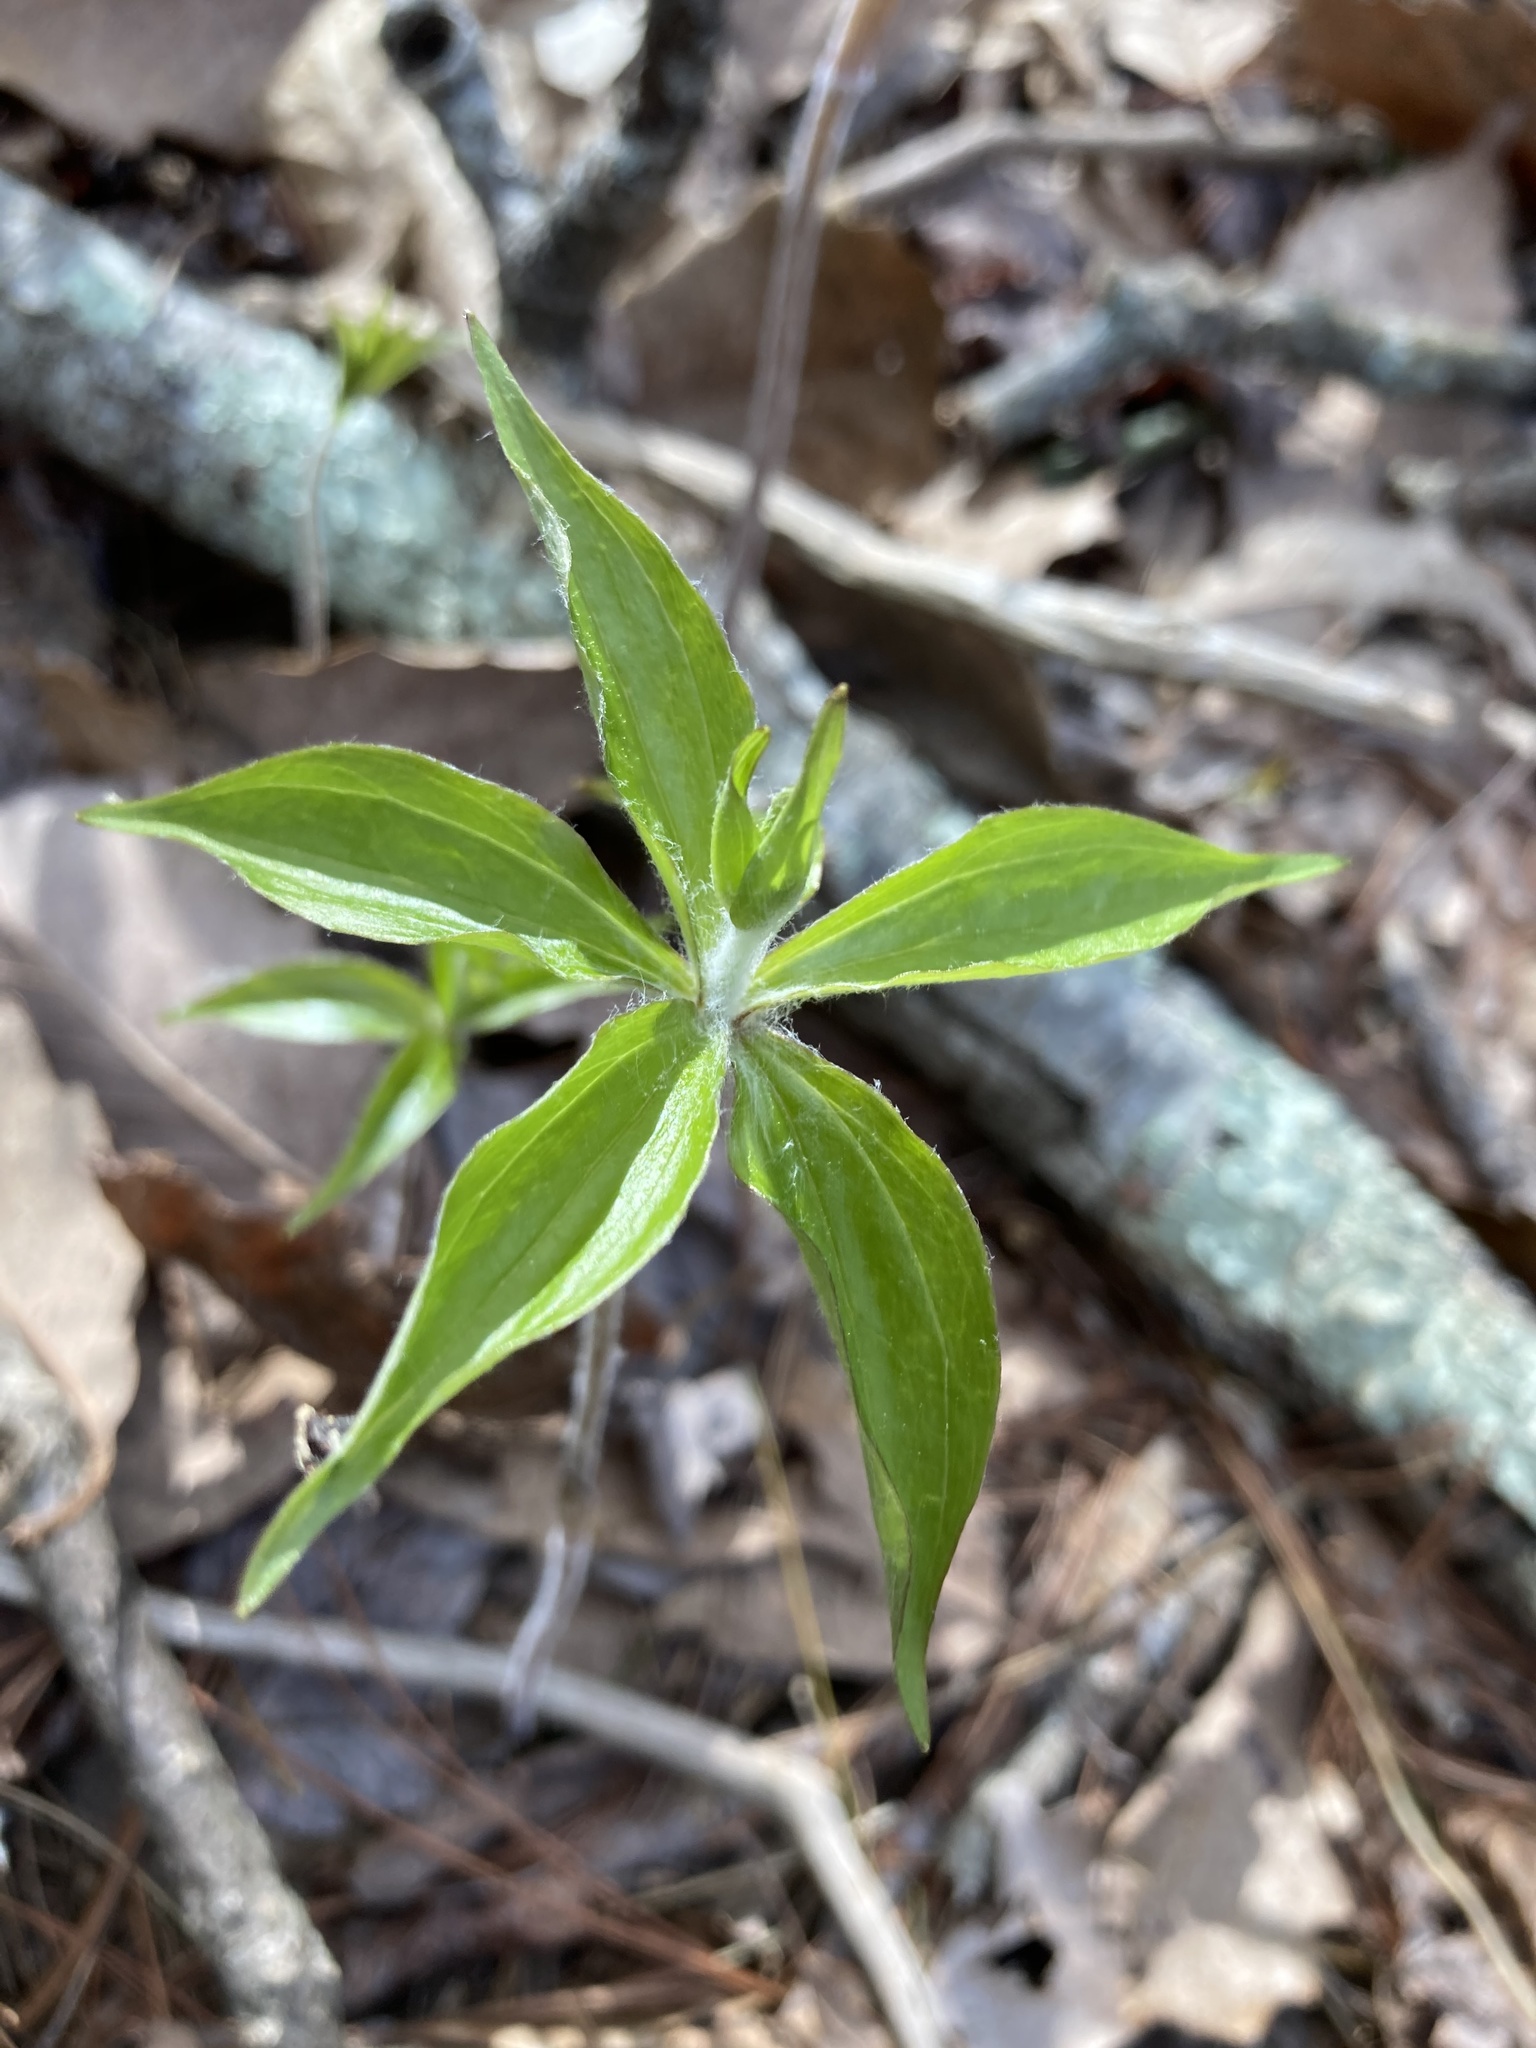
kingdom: Plantae
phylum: Tracheophyta
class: Liliopsida
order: Liliales
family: Liliaceae
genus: Medeola
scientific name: Medeola virginiana
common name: Indian cucumber-root
